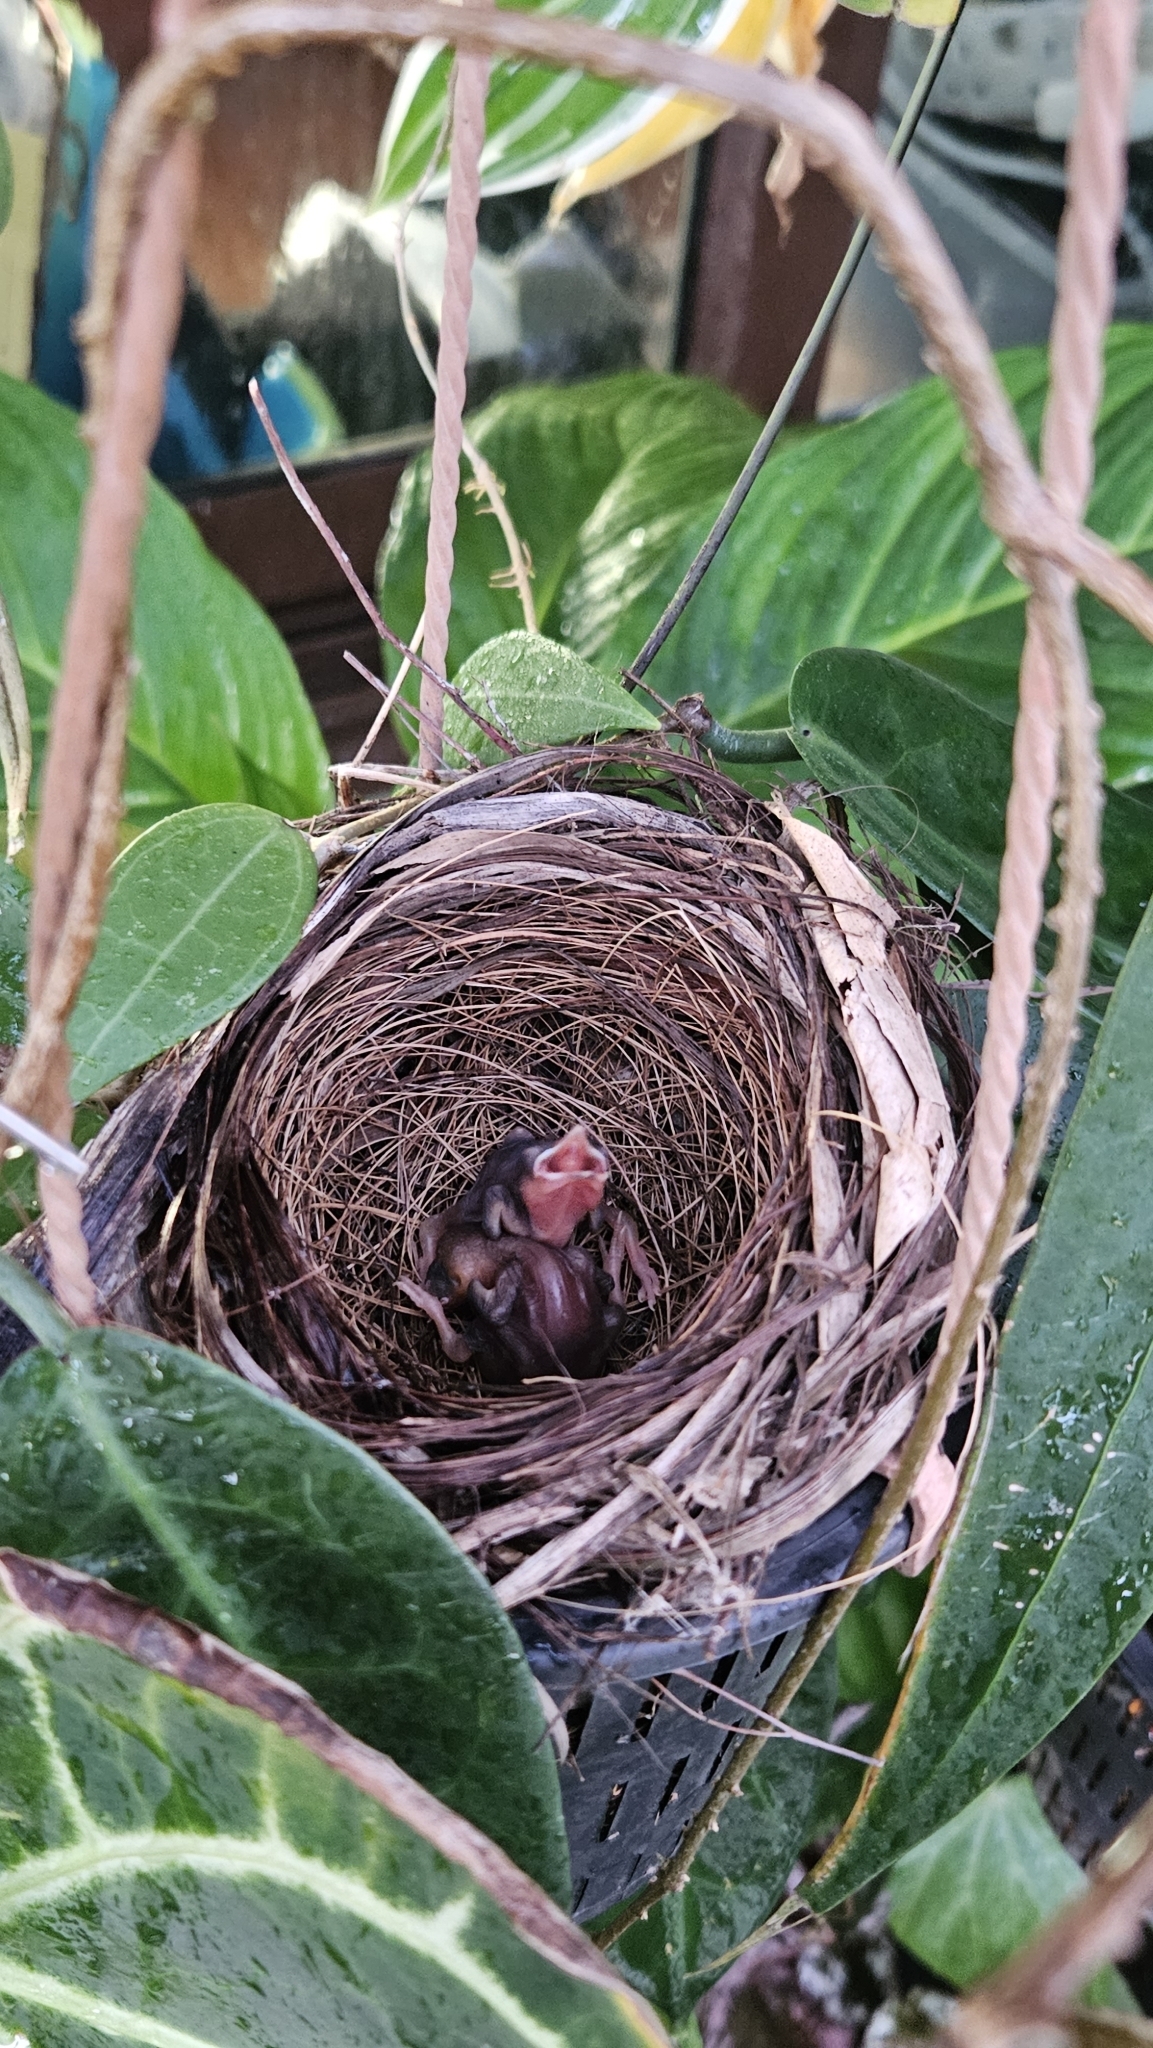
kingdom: Animalia
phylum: Chordata
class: Aves
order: Passeriformes
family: Pycnonotidae
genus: Pycnonotus
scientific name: Pycnonotus goiavier
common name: Yellow-vented bulbul
